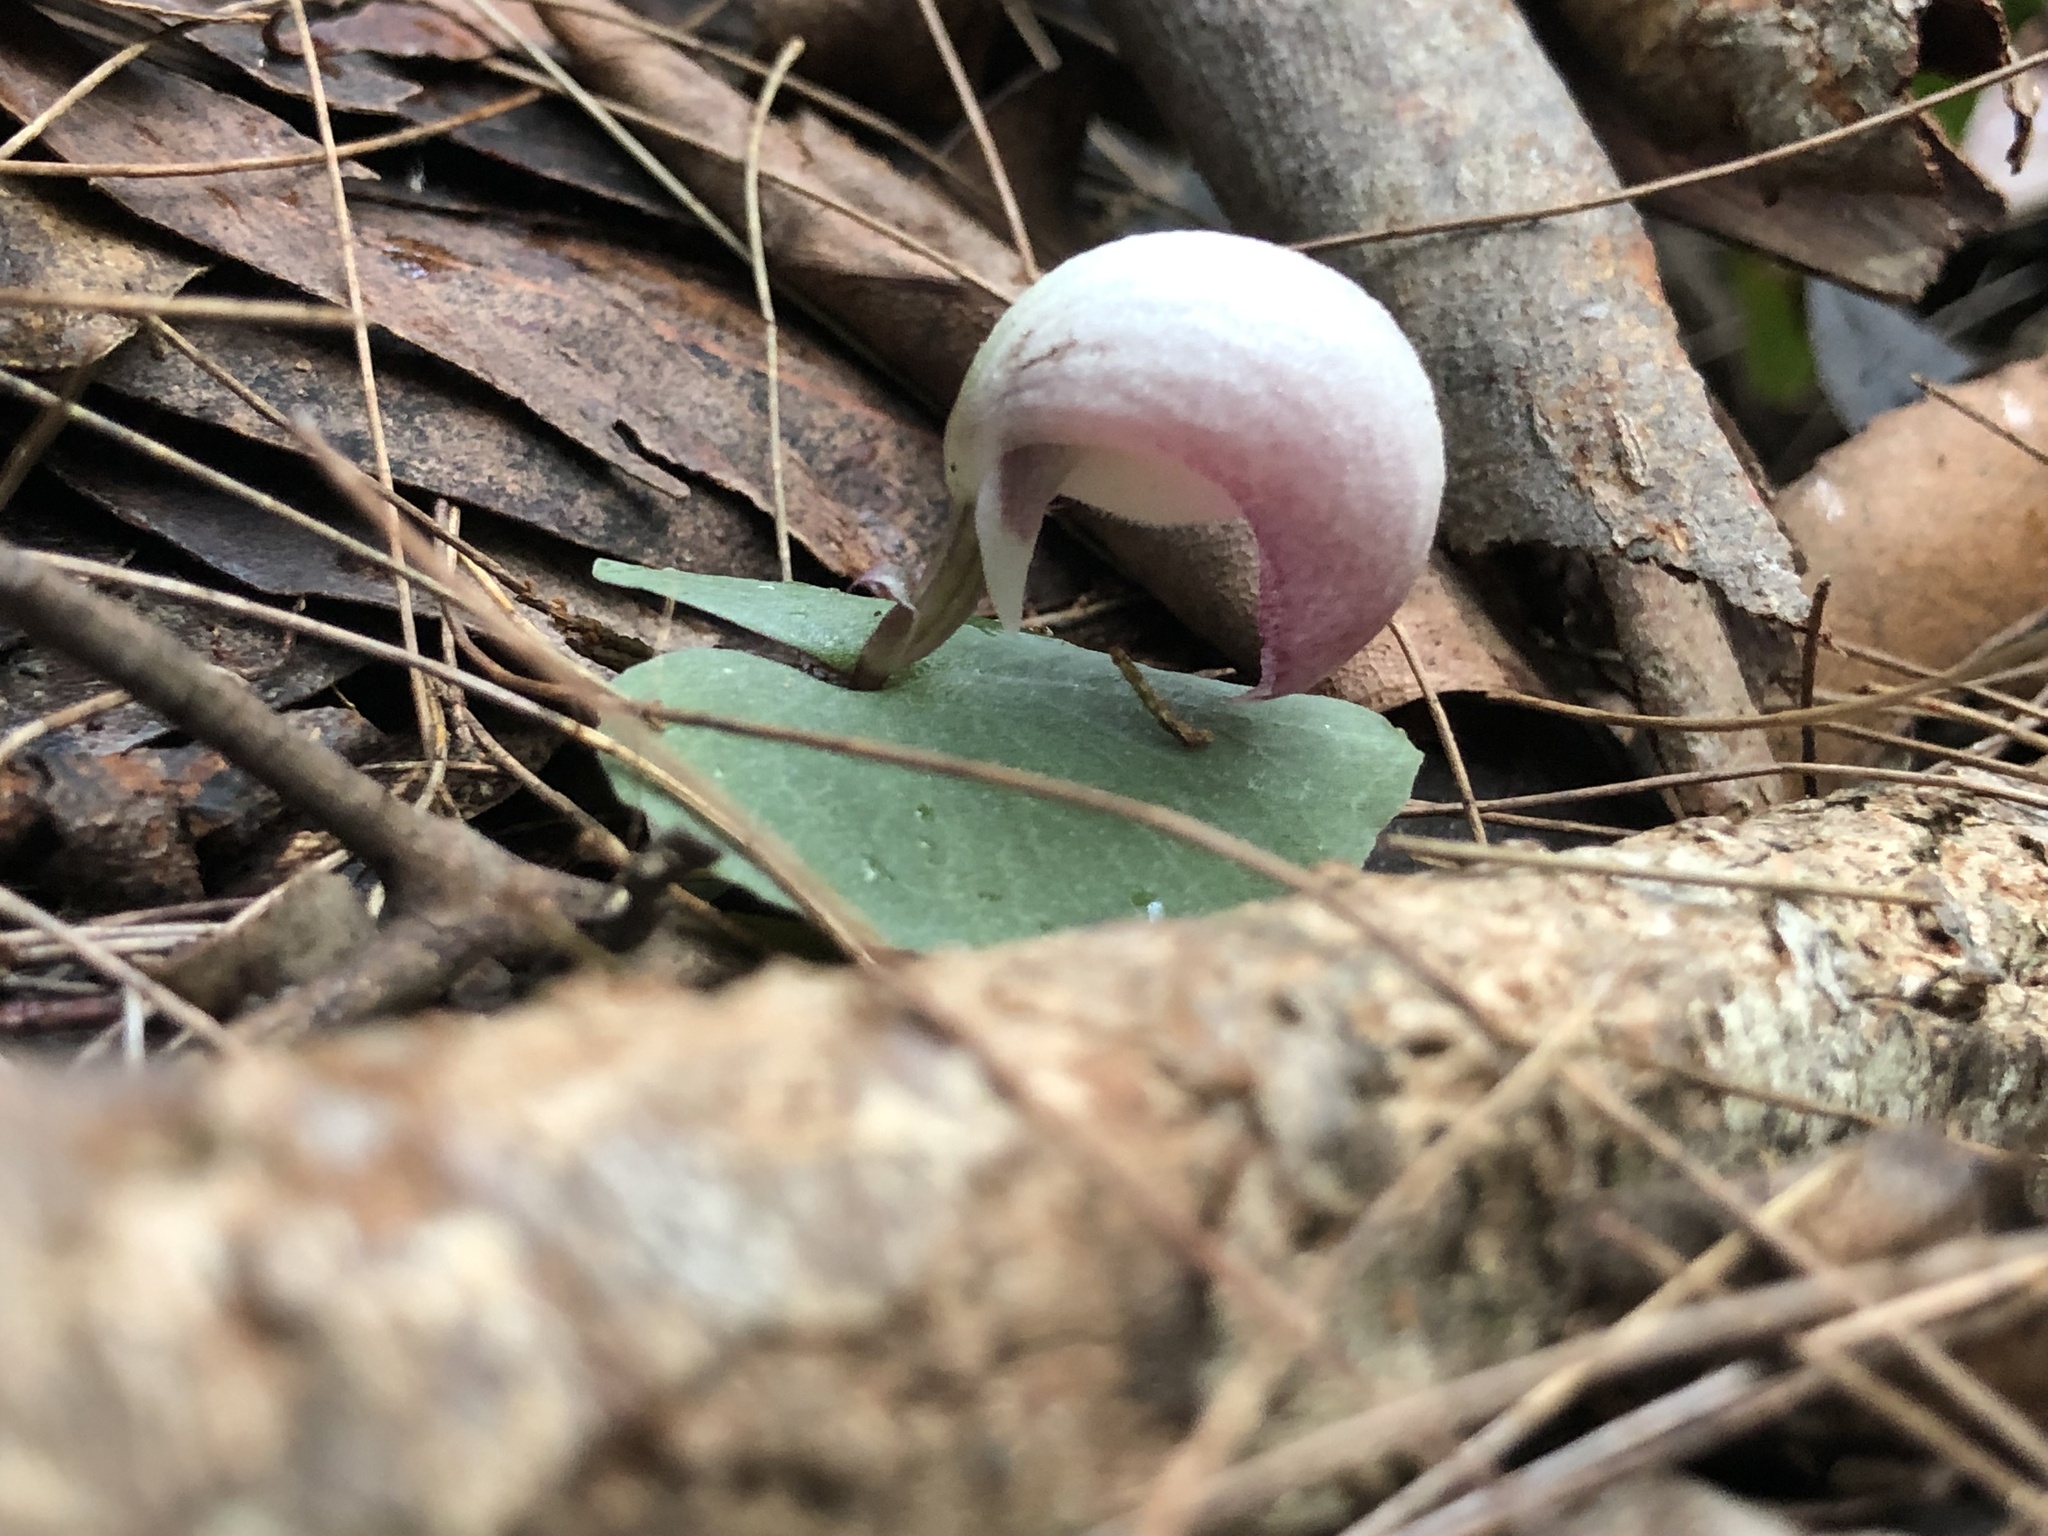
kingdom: Plantae
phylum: Tracheophyta
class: Liliopsida
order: Asparagales
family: Orchidaceae
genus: Corybas
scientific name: Corybas barbarae
